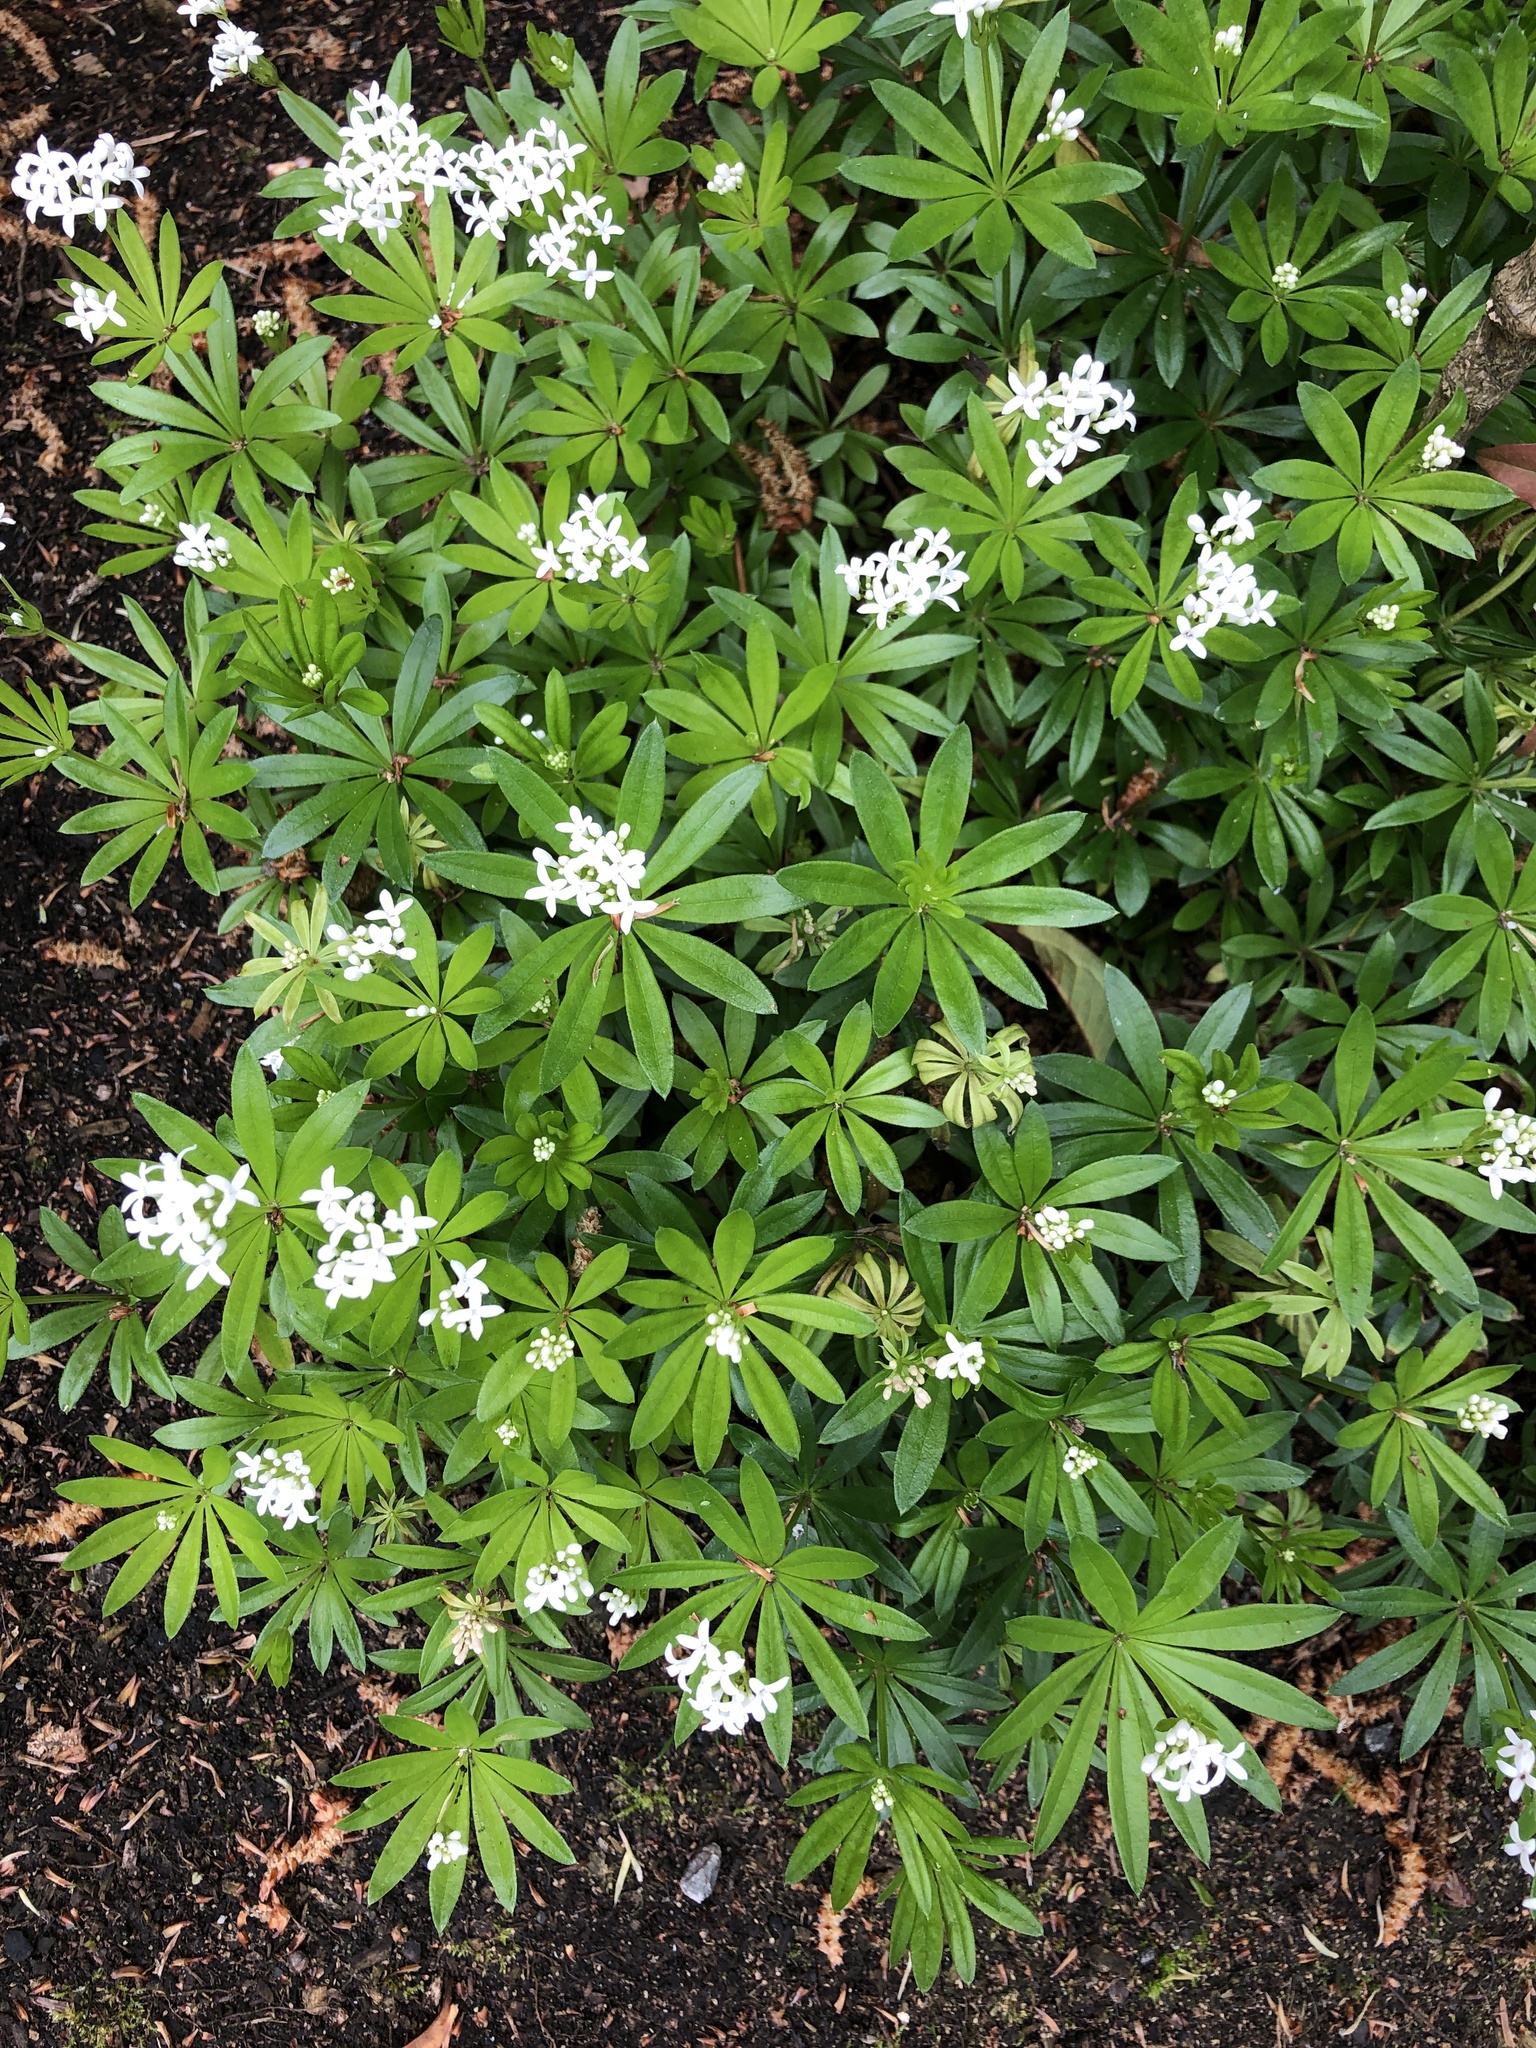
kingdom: Plantae
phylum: Tracheophyta
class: Magnoliopsida
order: Gentianales
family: Rubiaceae
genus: Galium
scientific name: Galium odoratum
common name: Sweet woodruff
